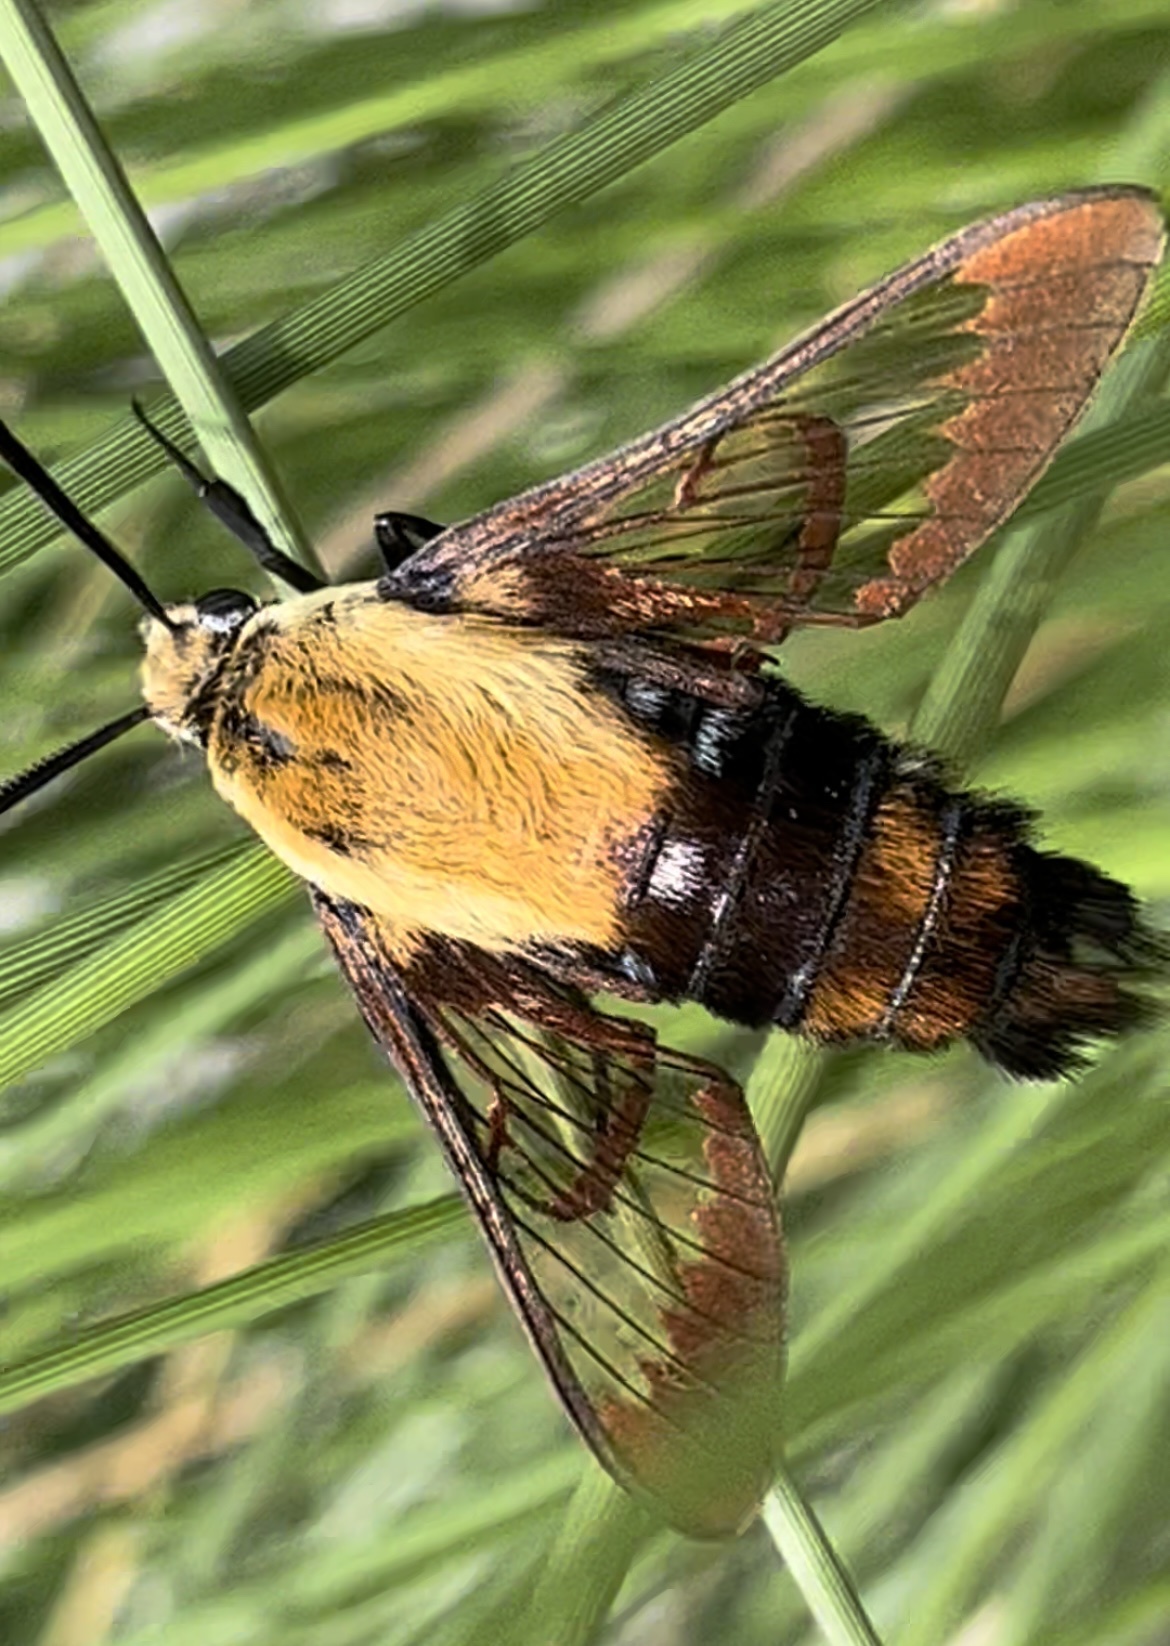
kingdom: Animalia
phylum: Arthropoda
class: Insecta
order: Lepidoptera
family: Sphingidae
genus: Hemaris
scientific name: Hemaris diffinis
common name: Bumblebee moth
